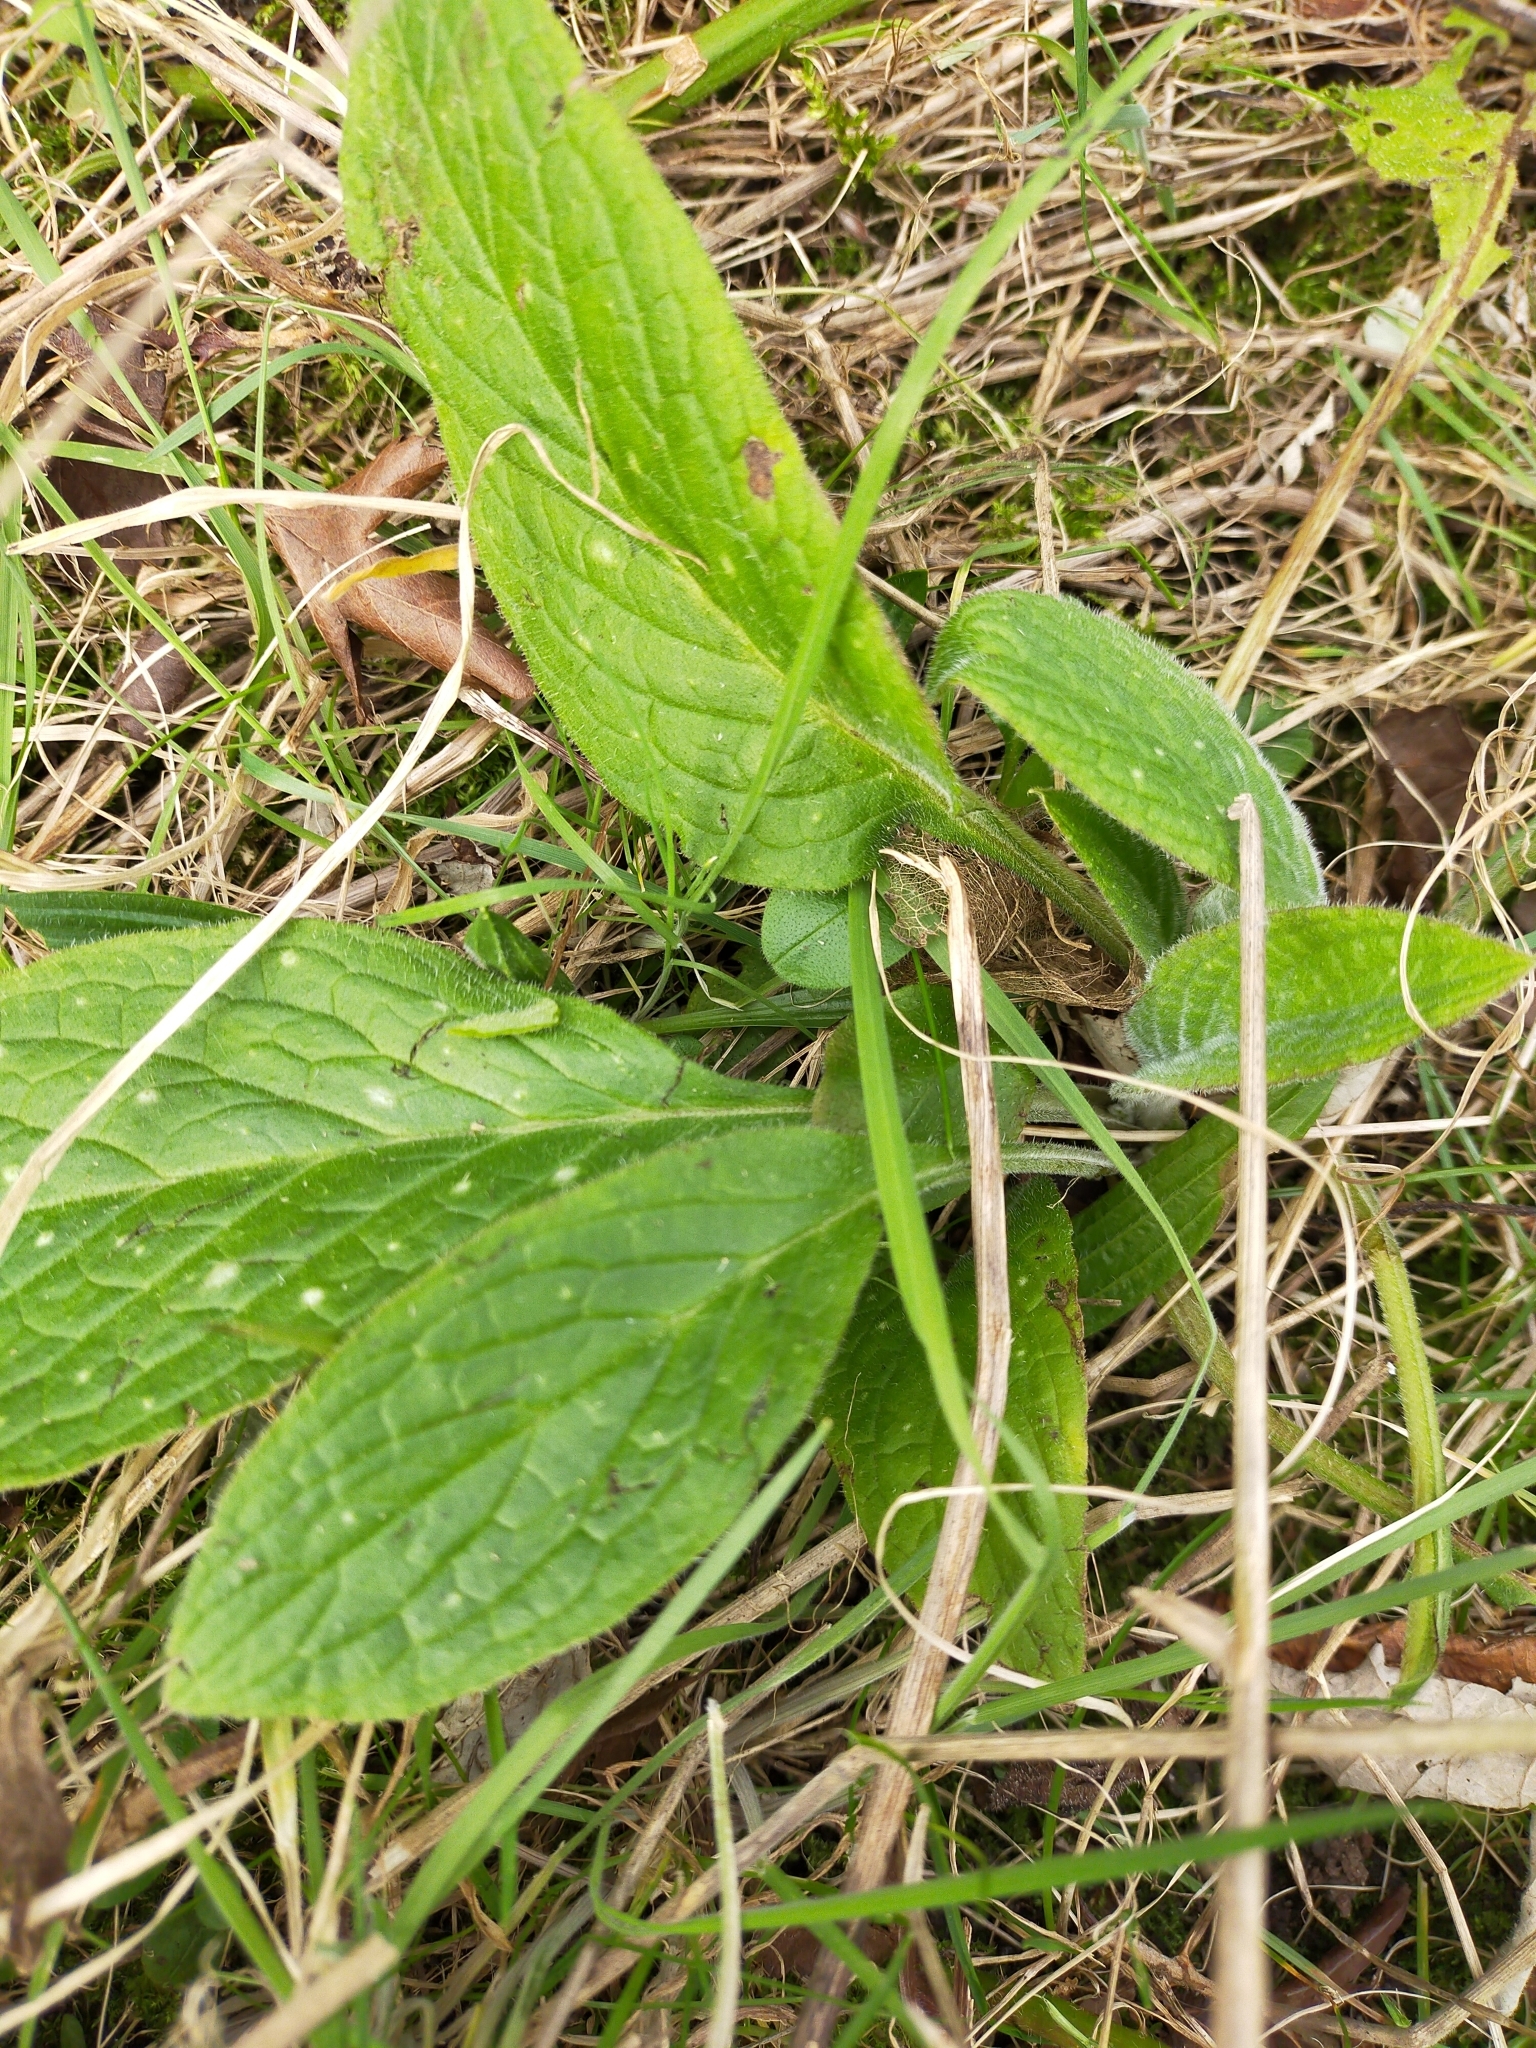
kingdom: Plantae
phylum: Tracheophyta
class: Magnoliopsida
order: Boraginales
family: Boraginaceae
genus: Pentaglottis
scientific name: Pentaglottis sempervirens
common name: Green alkanet
